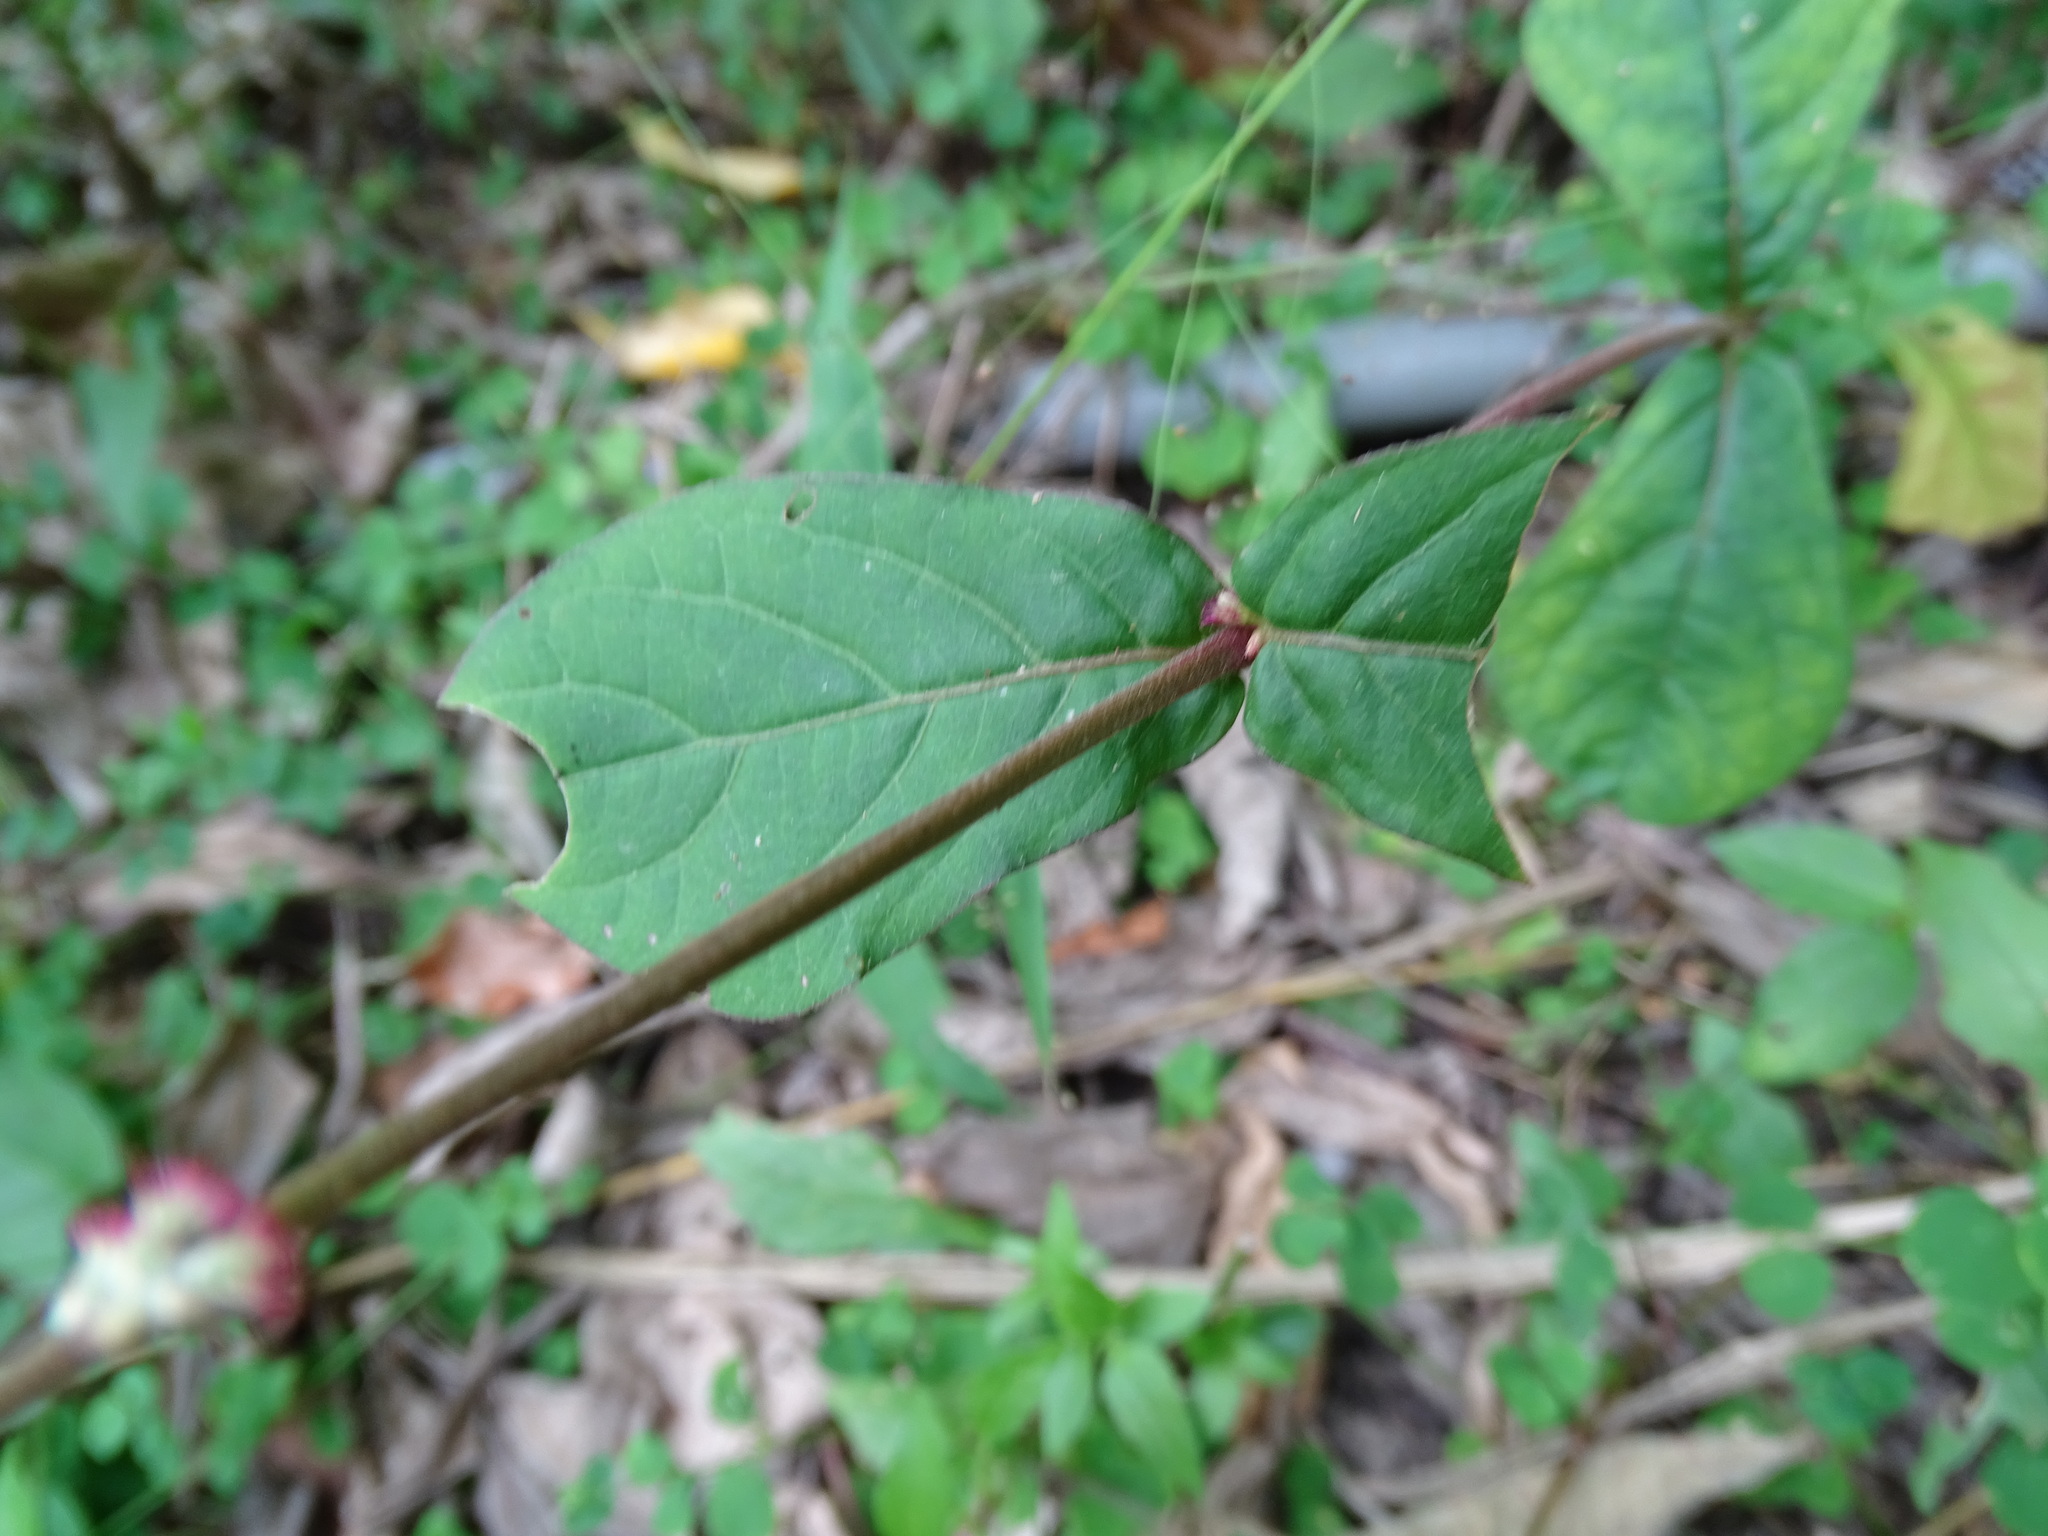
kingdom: Plantae
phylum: Tracheophyta
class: Magnoliopsida
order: Caryophyllales
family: Amaranthaceae
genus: Cyathula
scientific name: Cyathula prostrata
